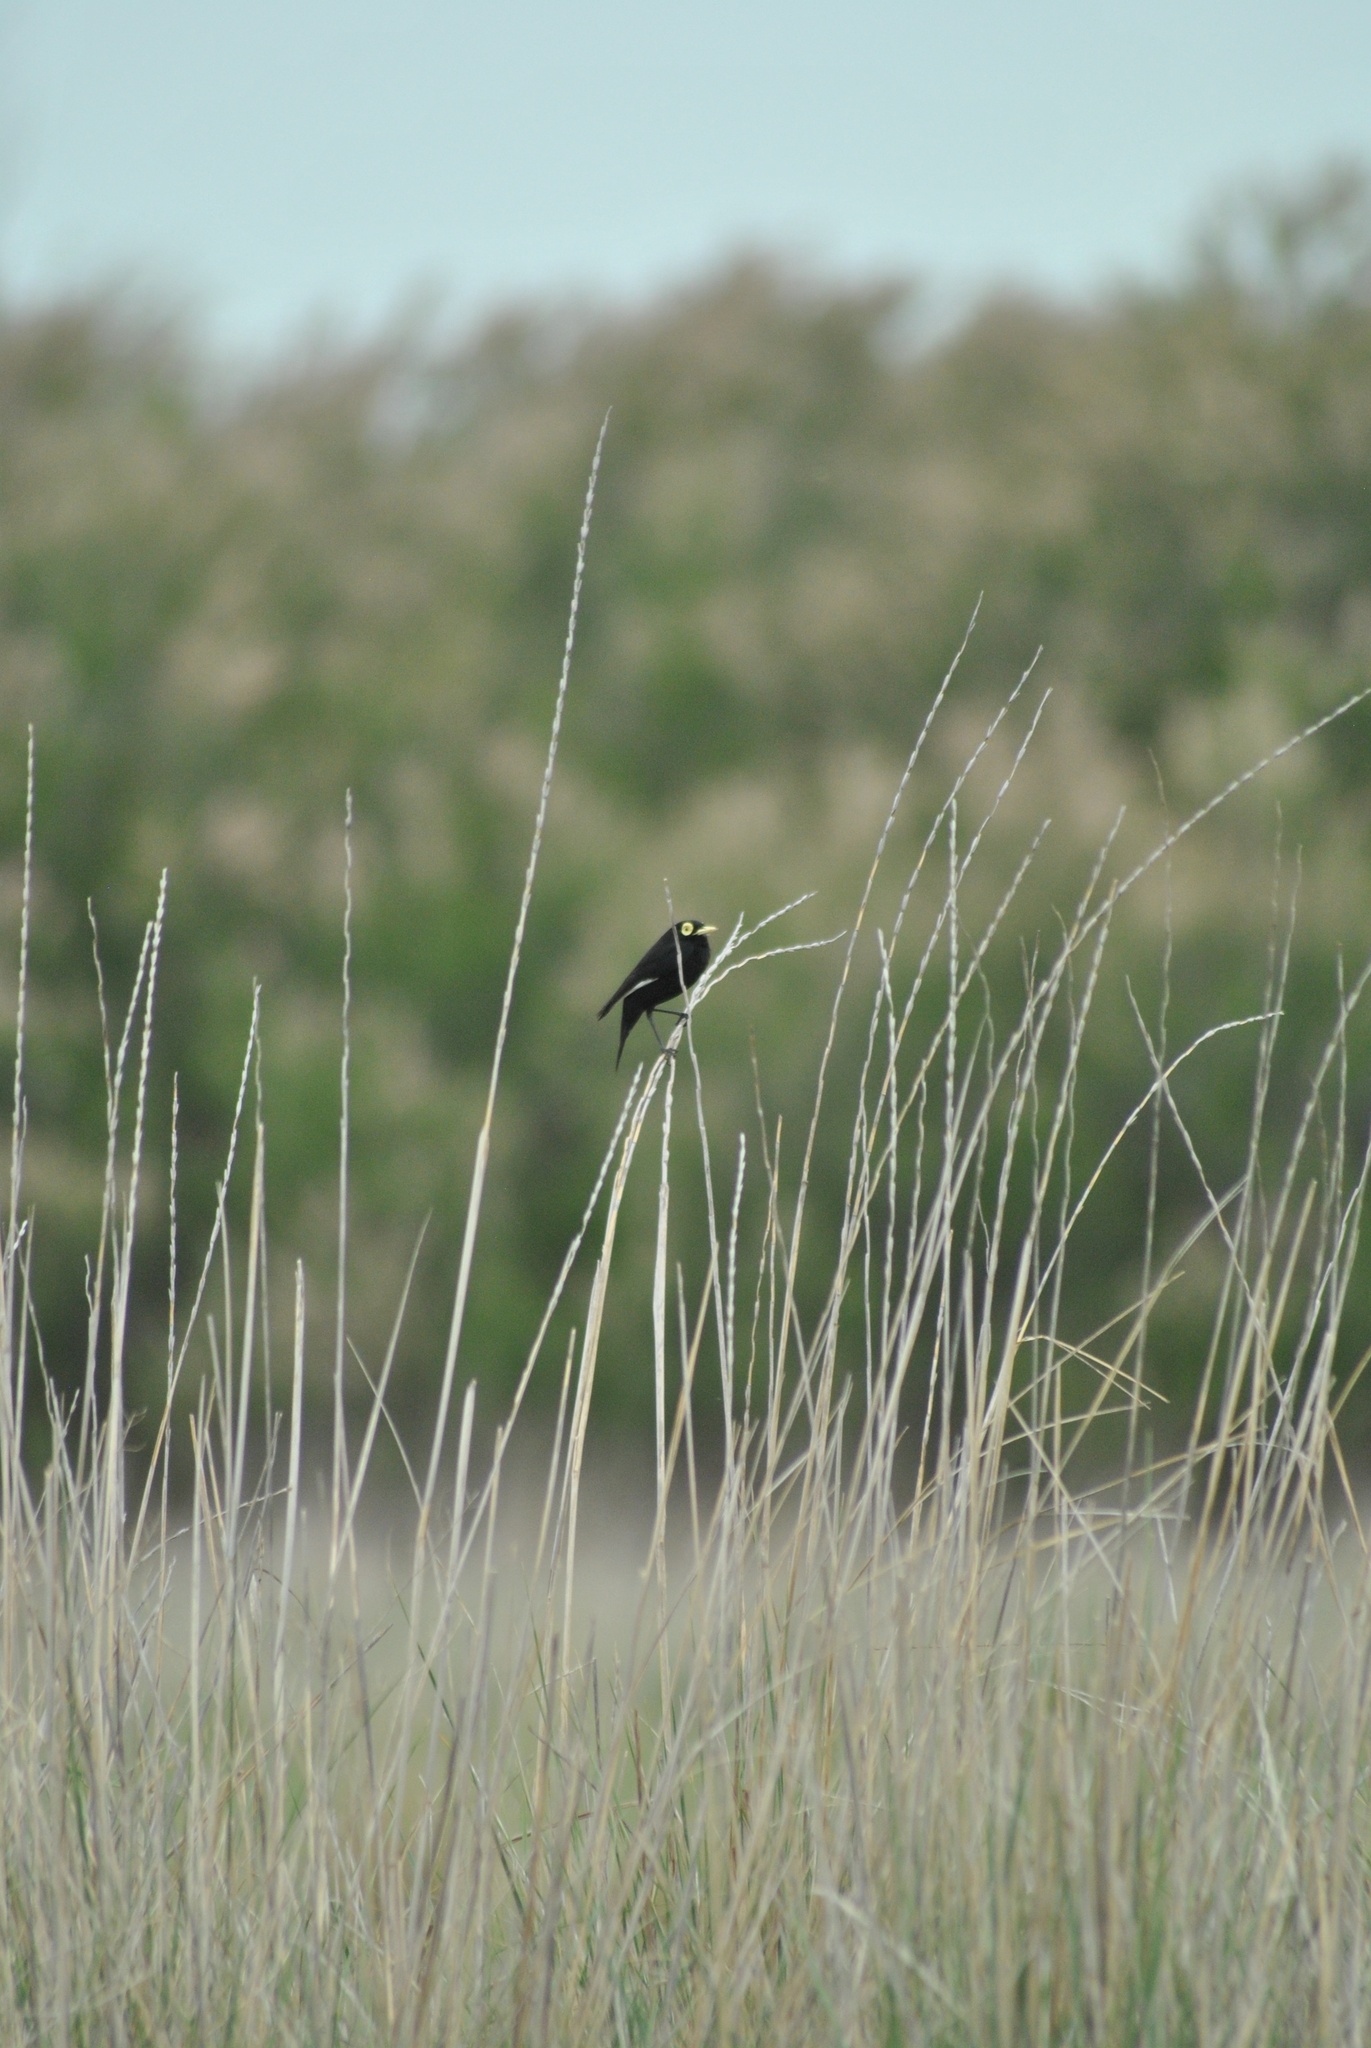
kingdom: Animalia
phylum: Chordata
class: Aves
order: Passeriformes
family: Tyrannidae
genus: Hymenops
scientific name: Hymenops perspicillatus
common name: Spectacled tyrant
